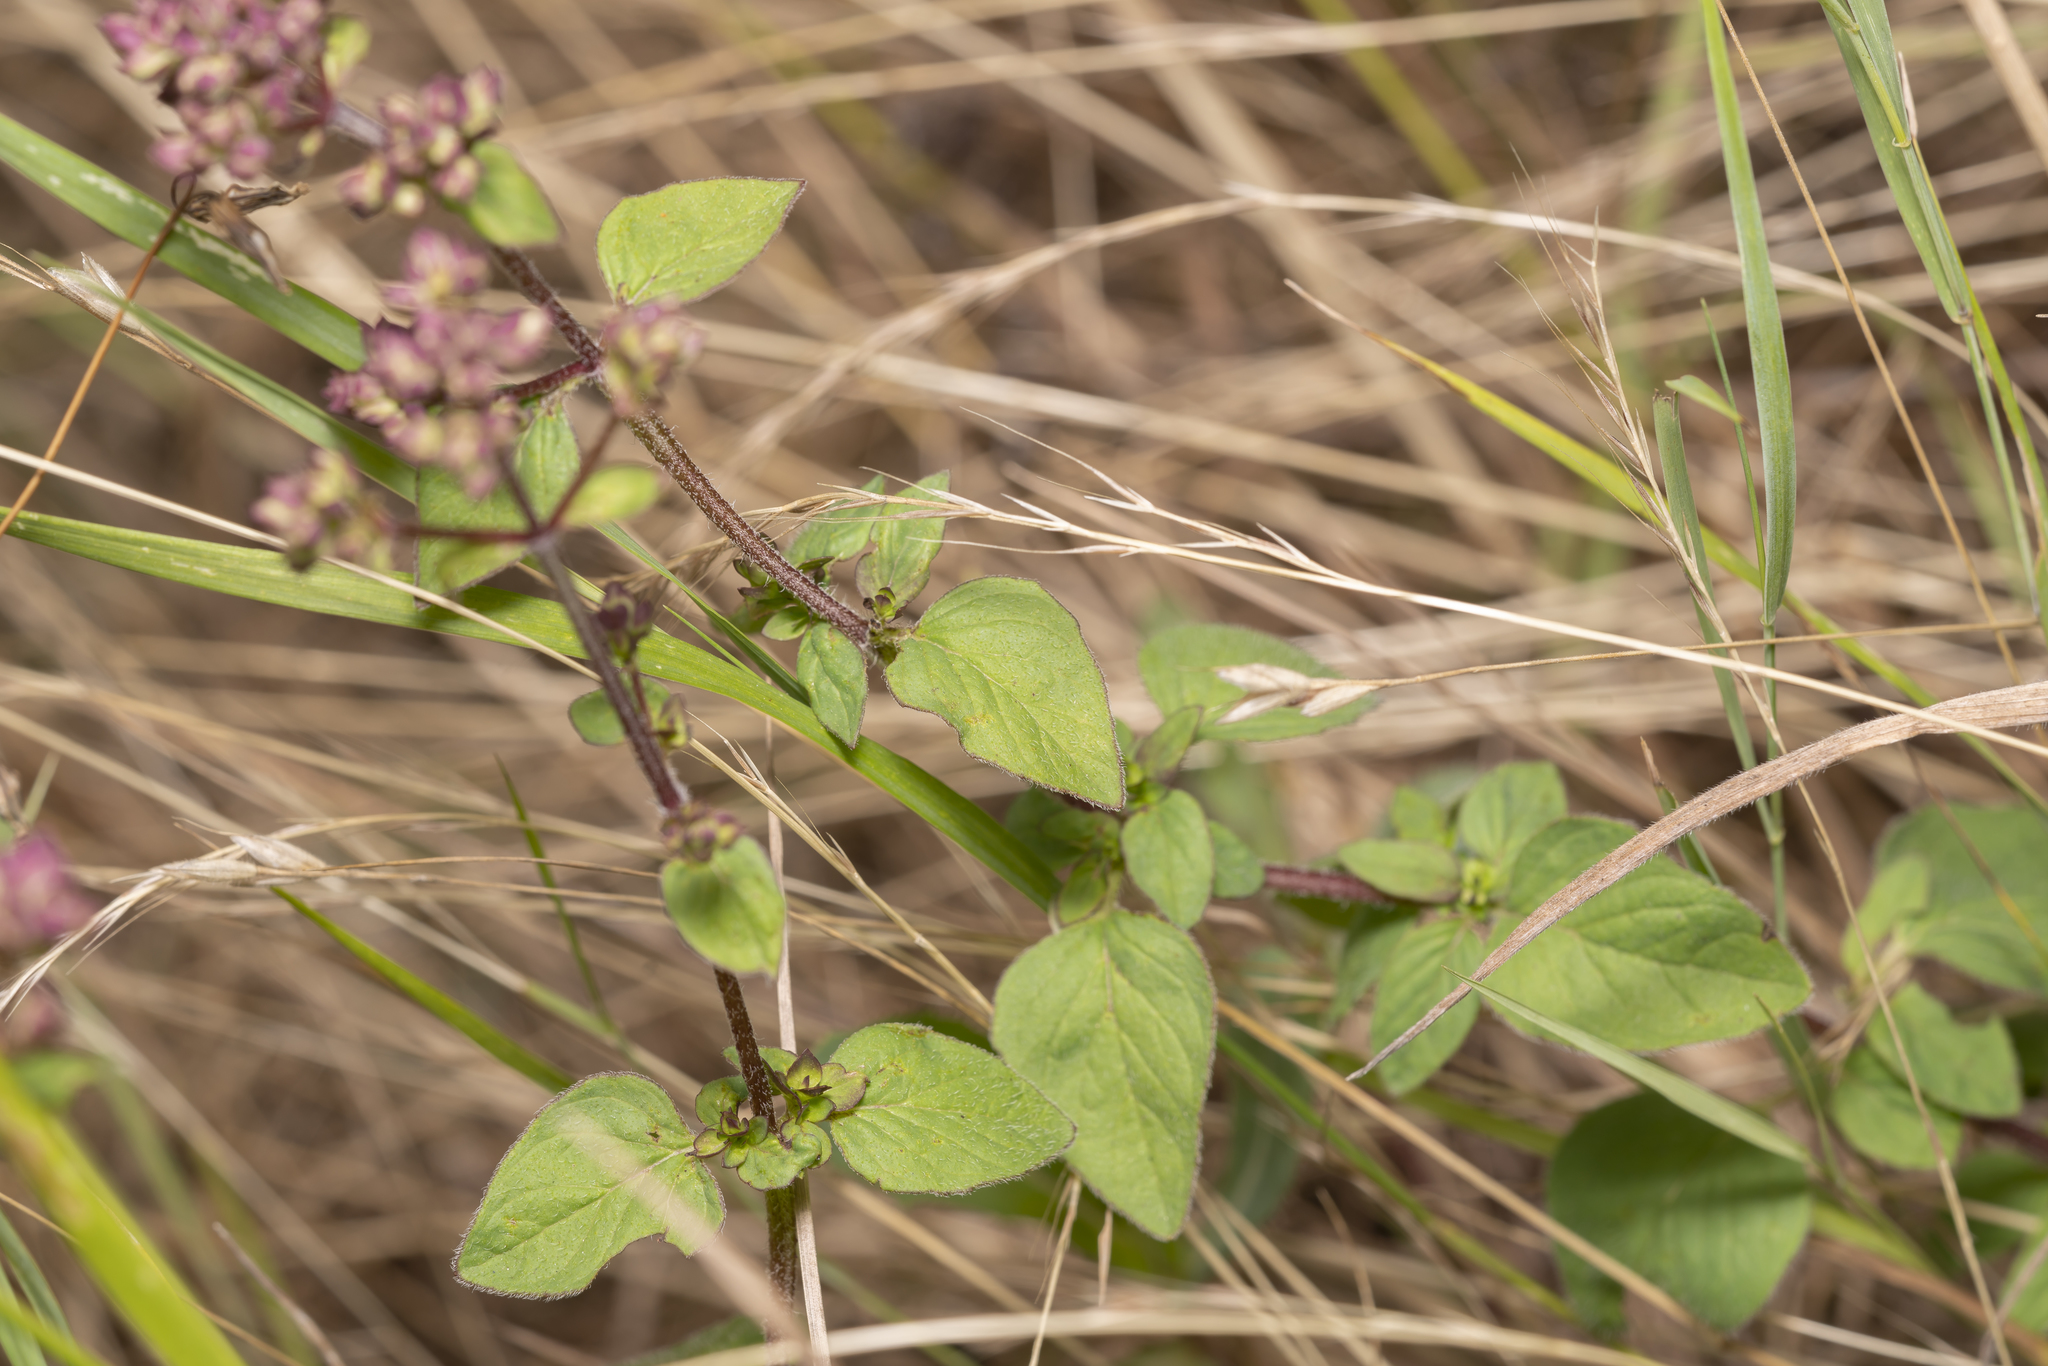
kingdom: Plantae
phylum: Tracheophyta
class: Magnoliopsida
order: Lamiales
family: Lamiaceae
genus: Origanum
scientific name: Origanum vulgare
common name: Wild marjoram
